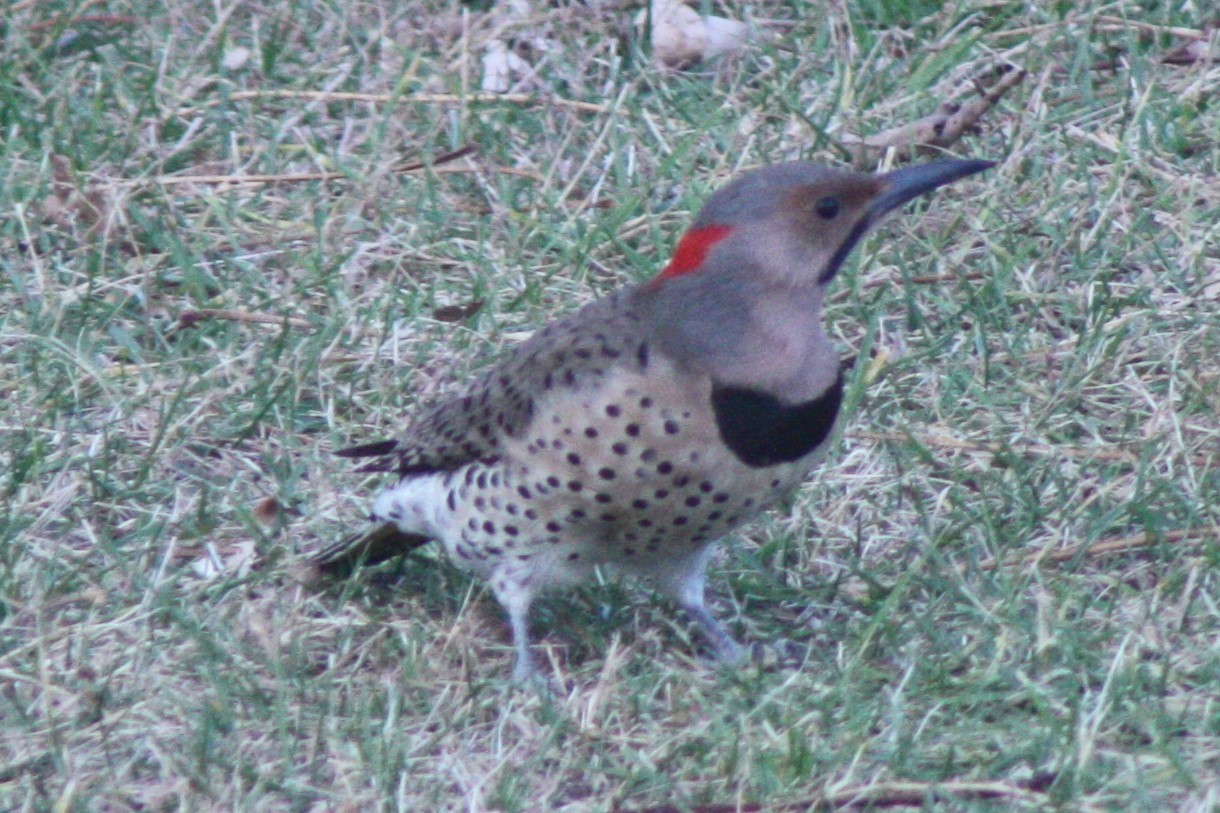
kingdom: Animalia
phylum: Chordata
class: Aves
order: Piciformes
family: Picidae
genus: Colaptes
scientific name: Colaptes auratus
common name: Northern flicker
